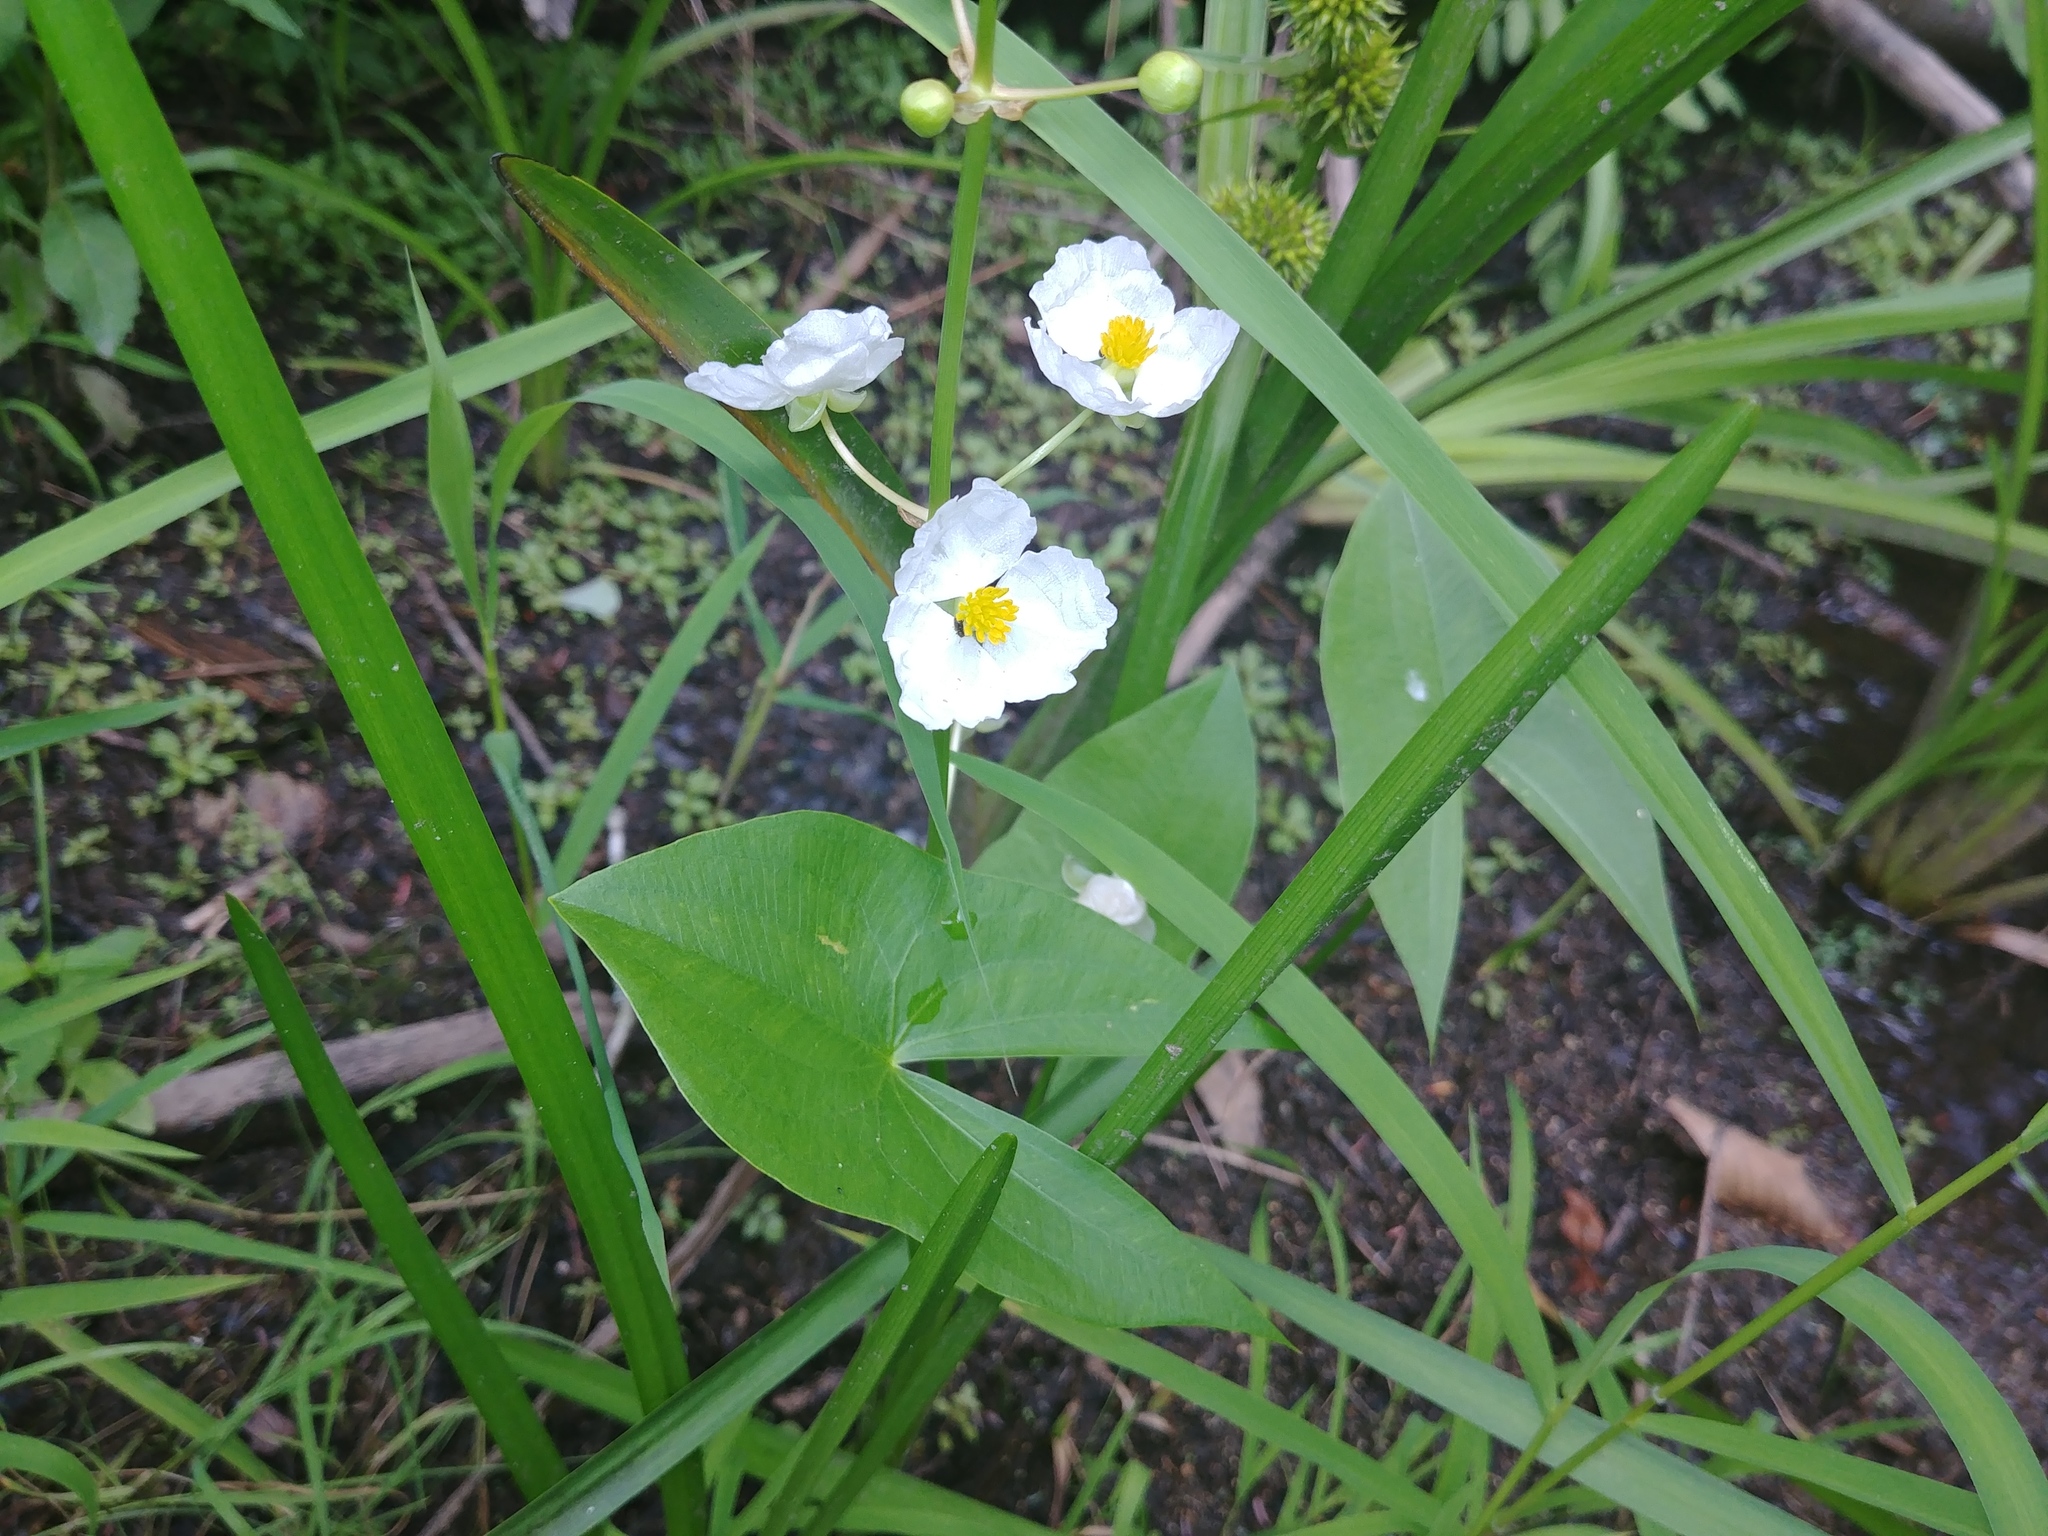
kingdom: Plantae
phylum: Tracheophyta
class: Liliopsida
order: Alismatales
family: Alismataceae
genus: Sagittaria
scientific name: Sagittaria latifolia
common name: Duck-potato
